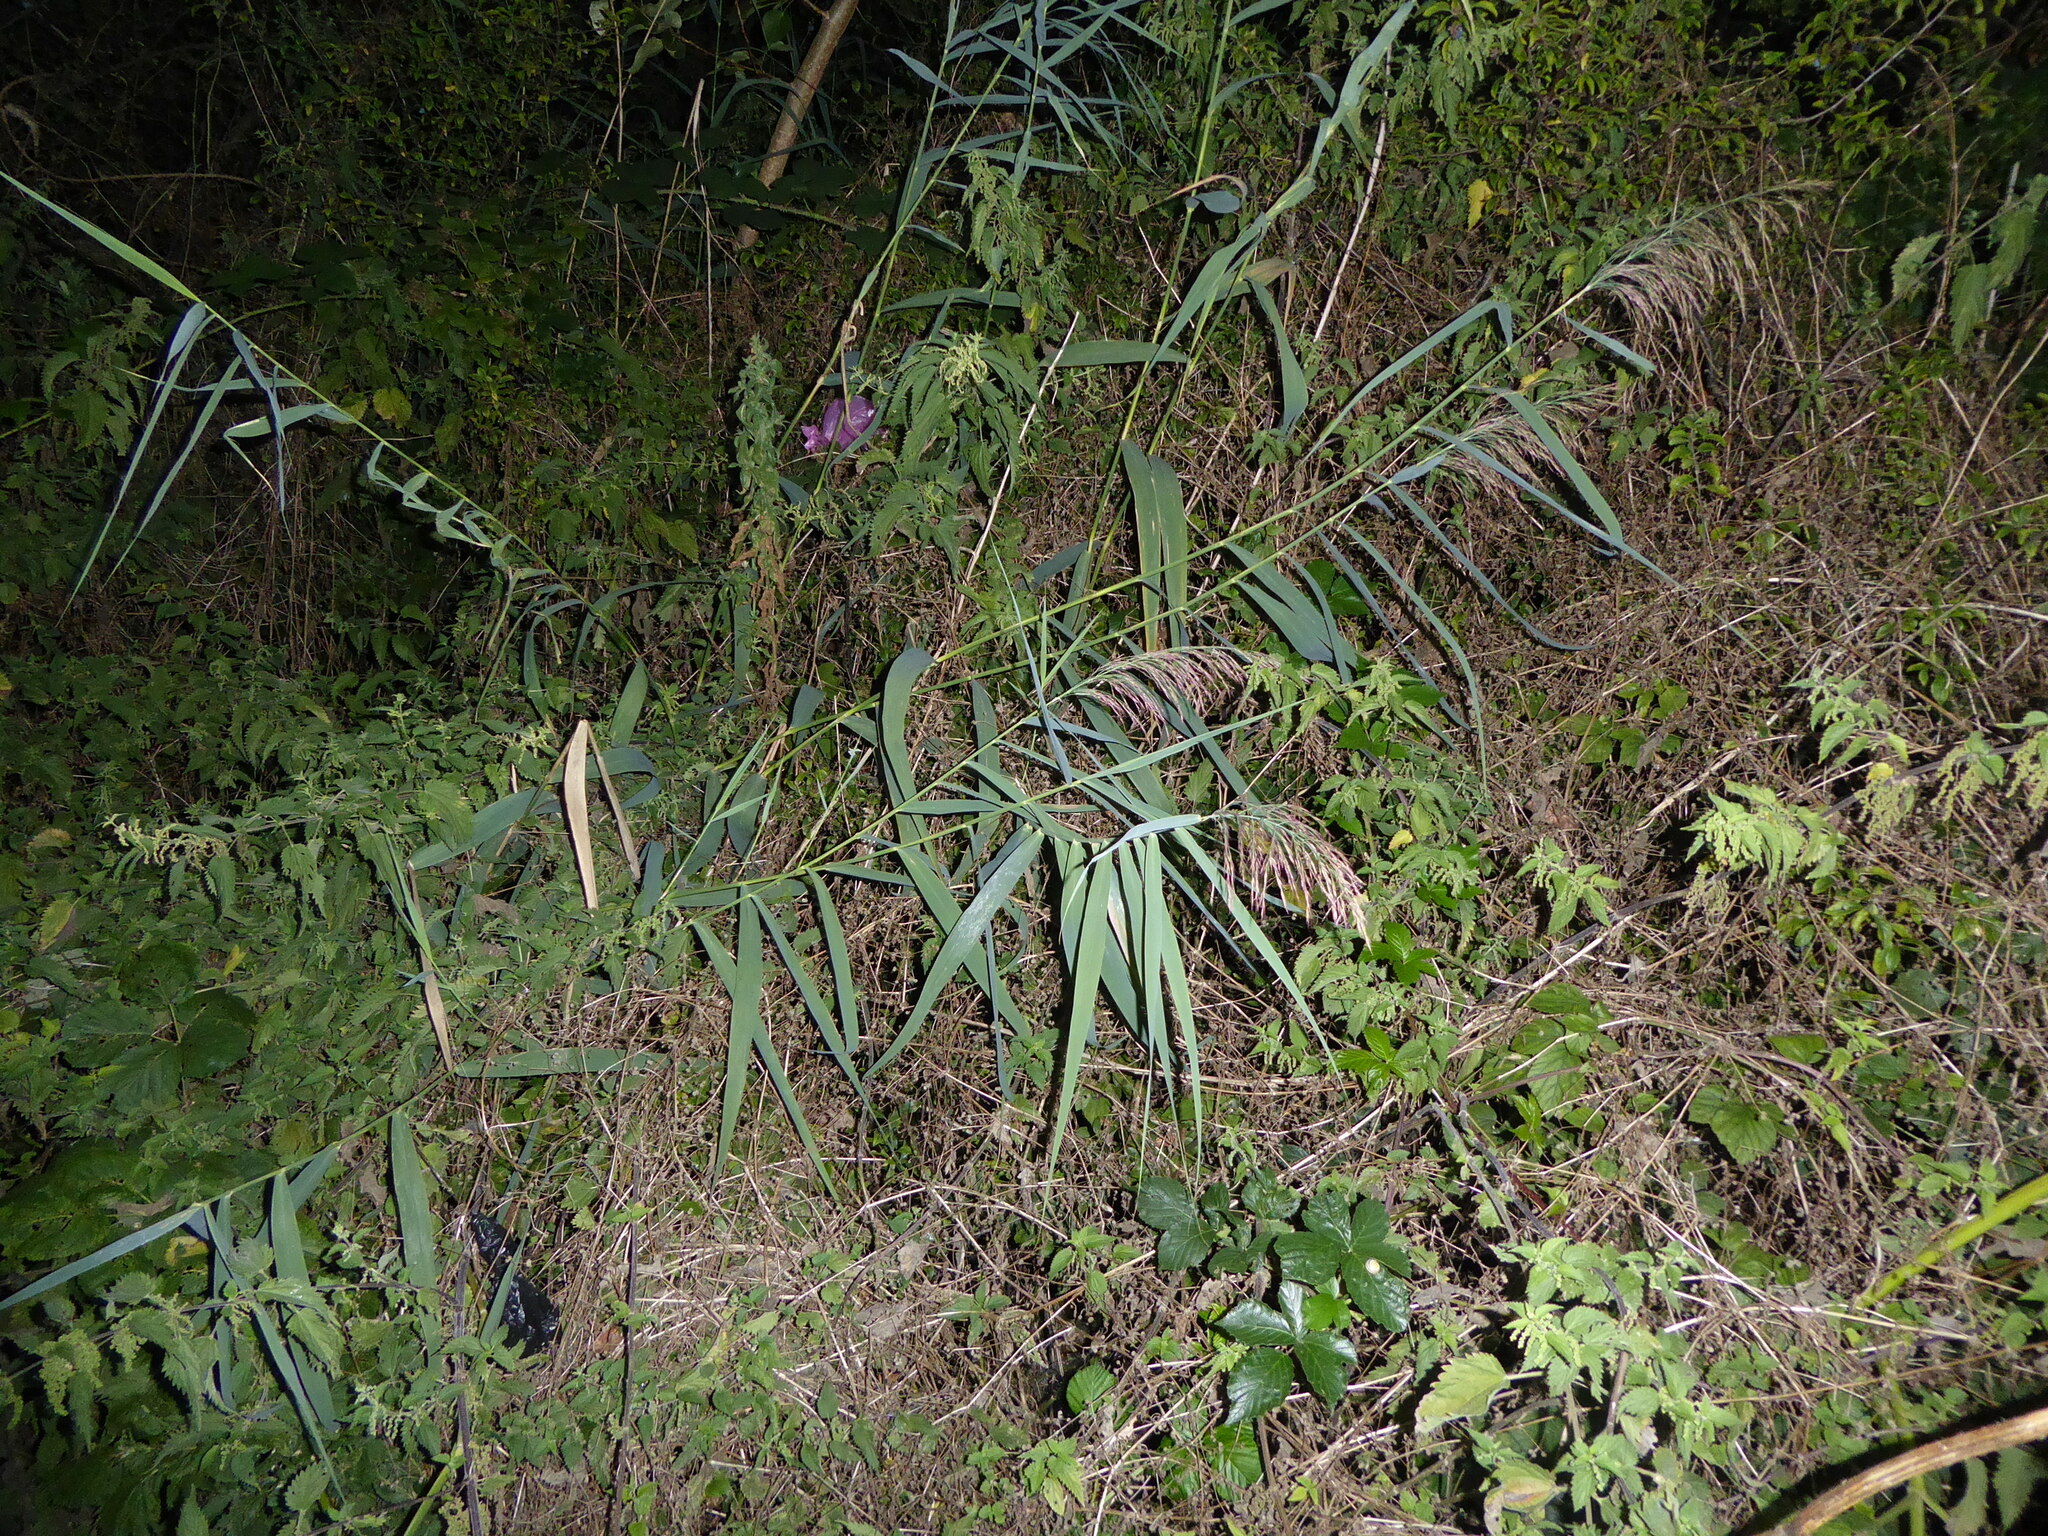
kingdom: Plantae
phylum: Tracheophyta
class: Liliopsida
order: Poales
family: Poaceae
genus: Phragmites
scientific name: Phragmites australis
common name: Common reed
